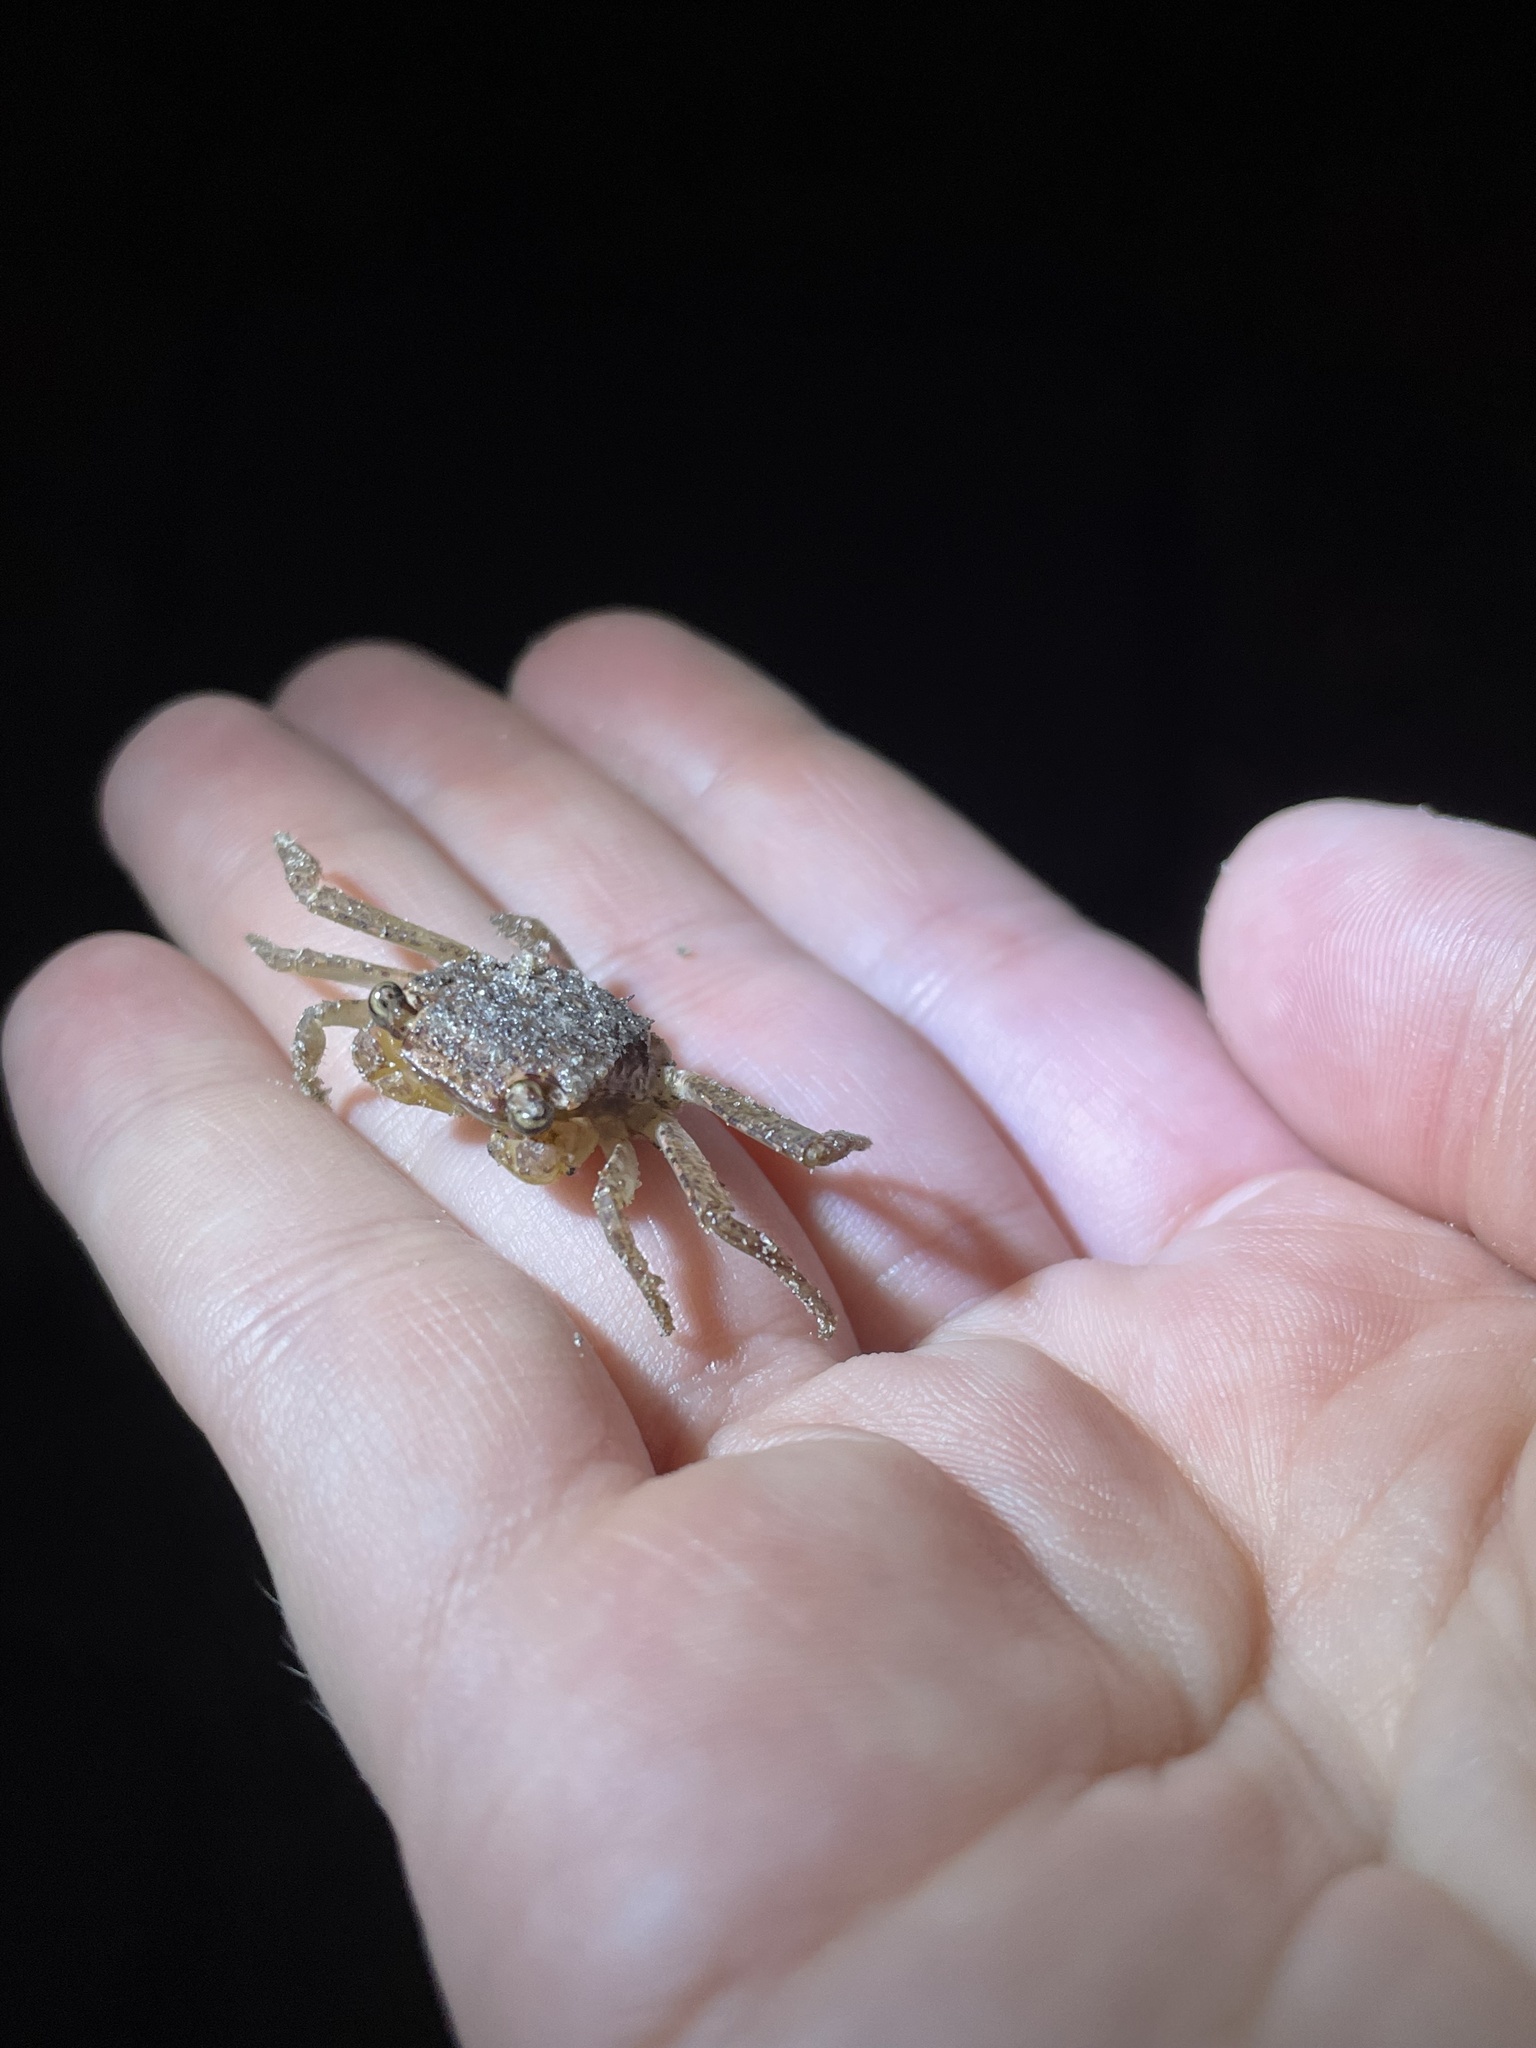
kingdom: Animalia
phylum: Arthropoda
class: Malacostraca
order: Decapoda
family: Sesarmidae
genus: Armases
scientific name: Armases ricordi
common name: Humic marsh crab
